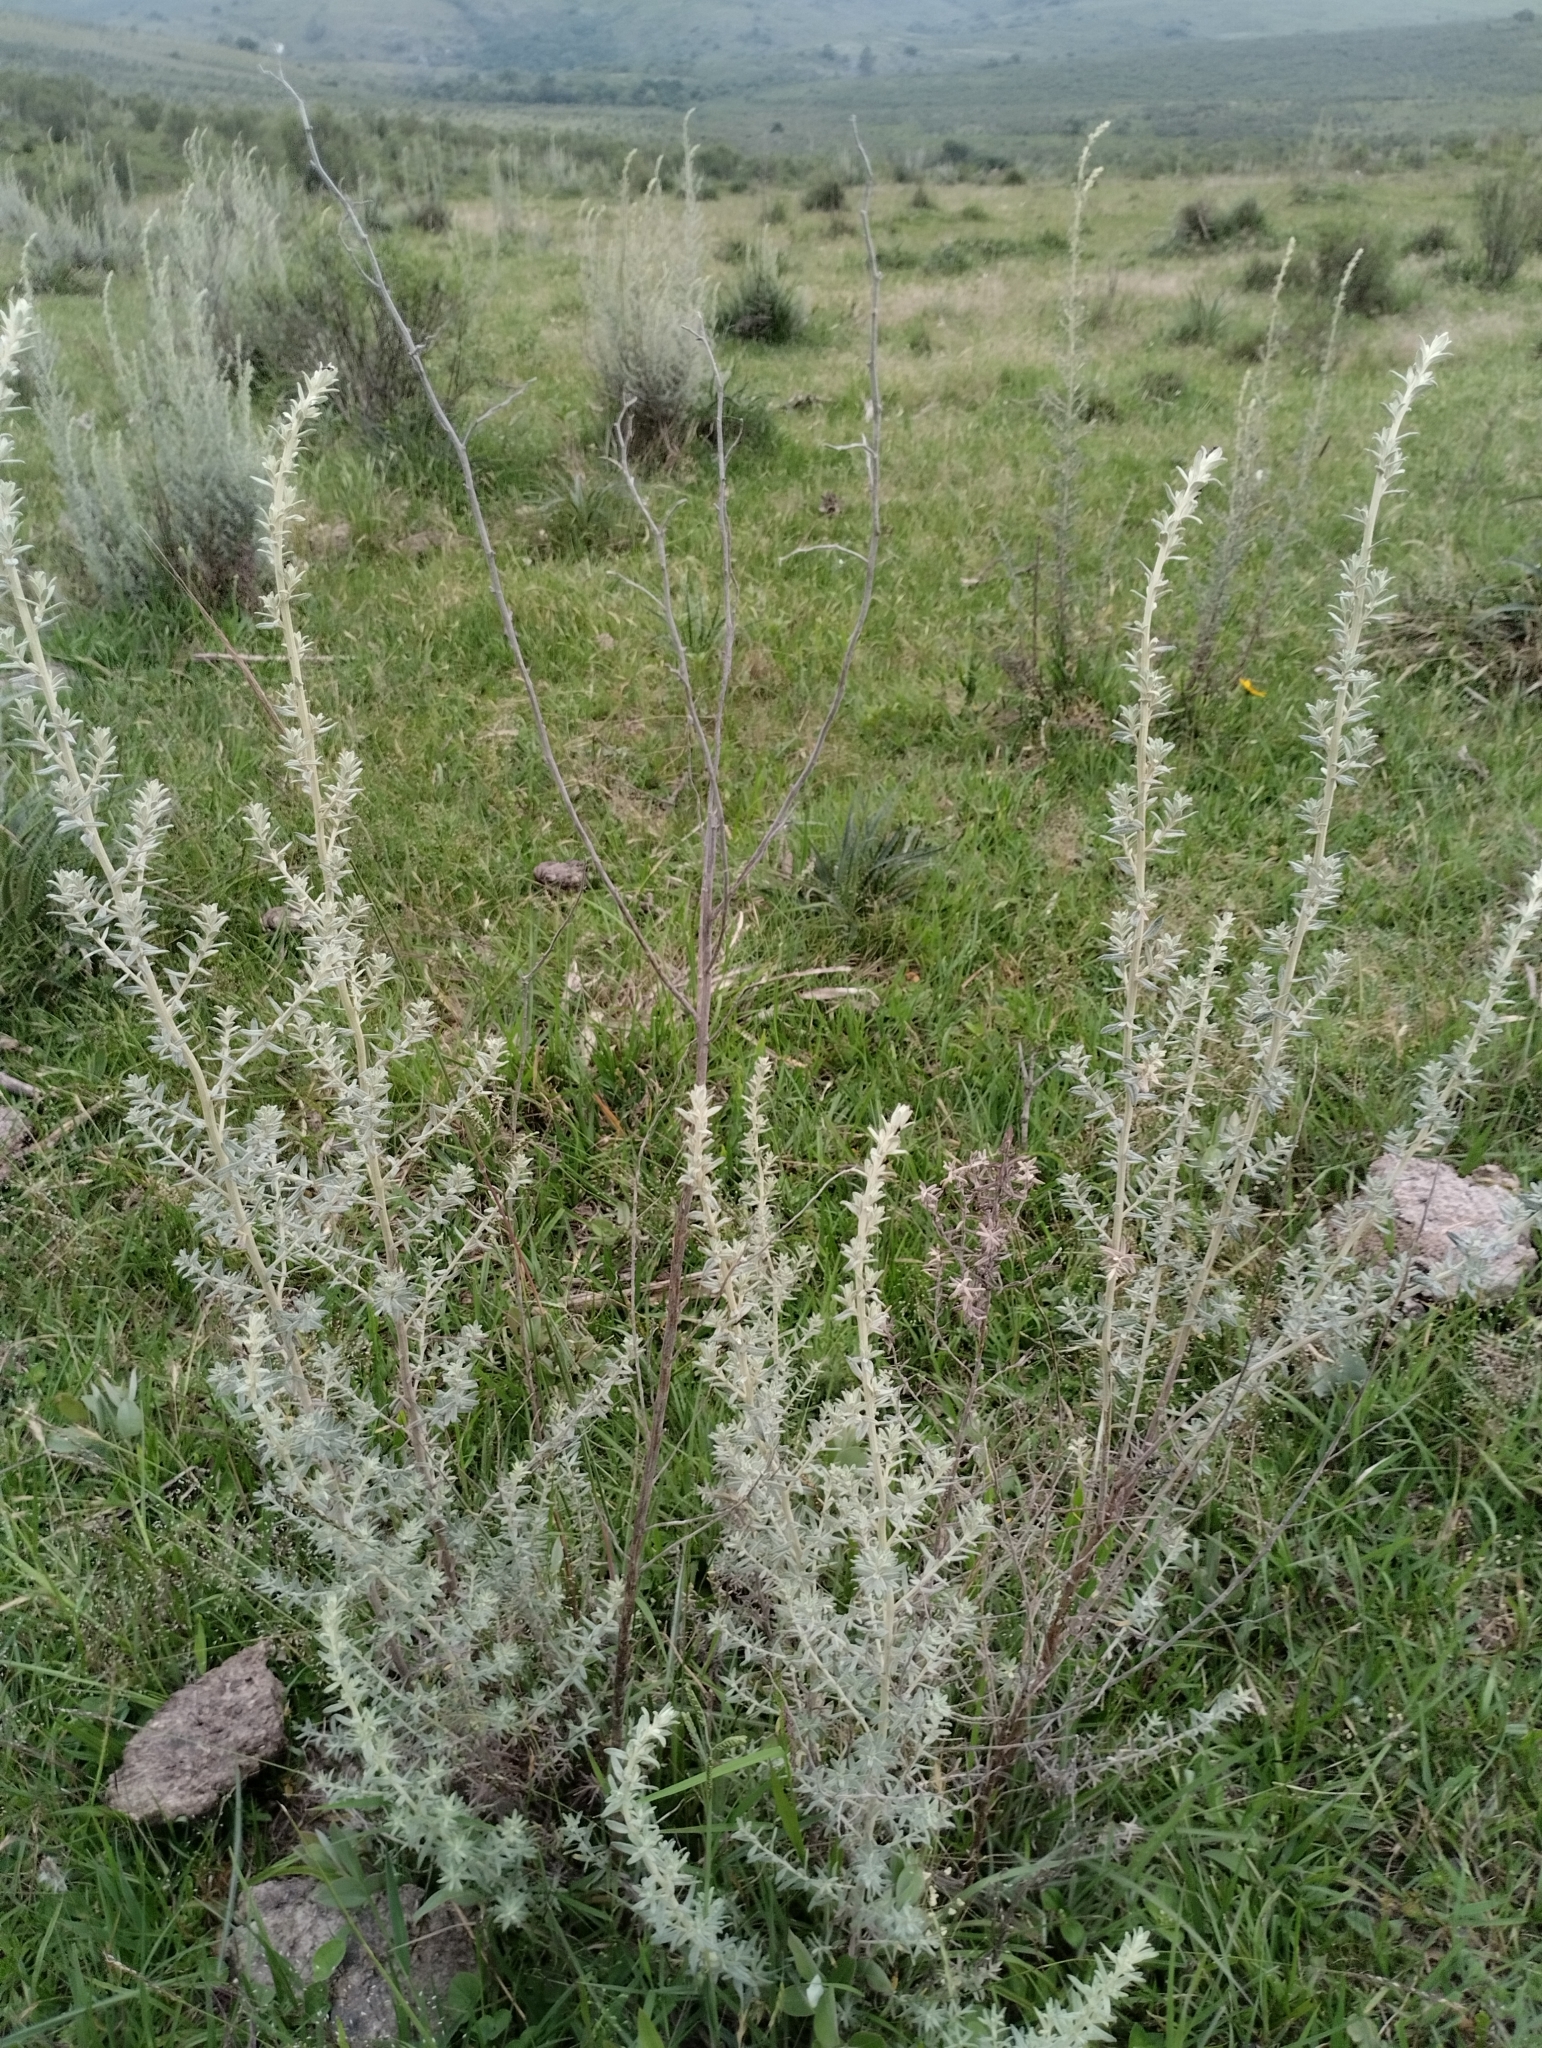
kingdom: Plantae
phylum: Tracheophyta
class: Magnoliopsida
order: Asterales
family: Asteraceae
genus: Baccharis
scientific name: Baccharis ochracea
